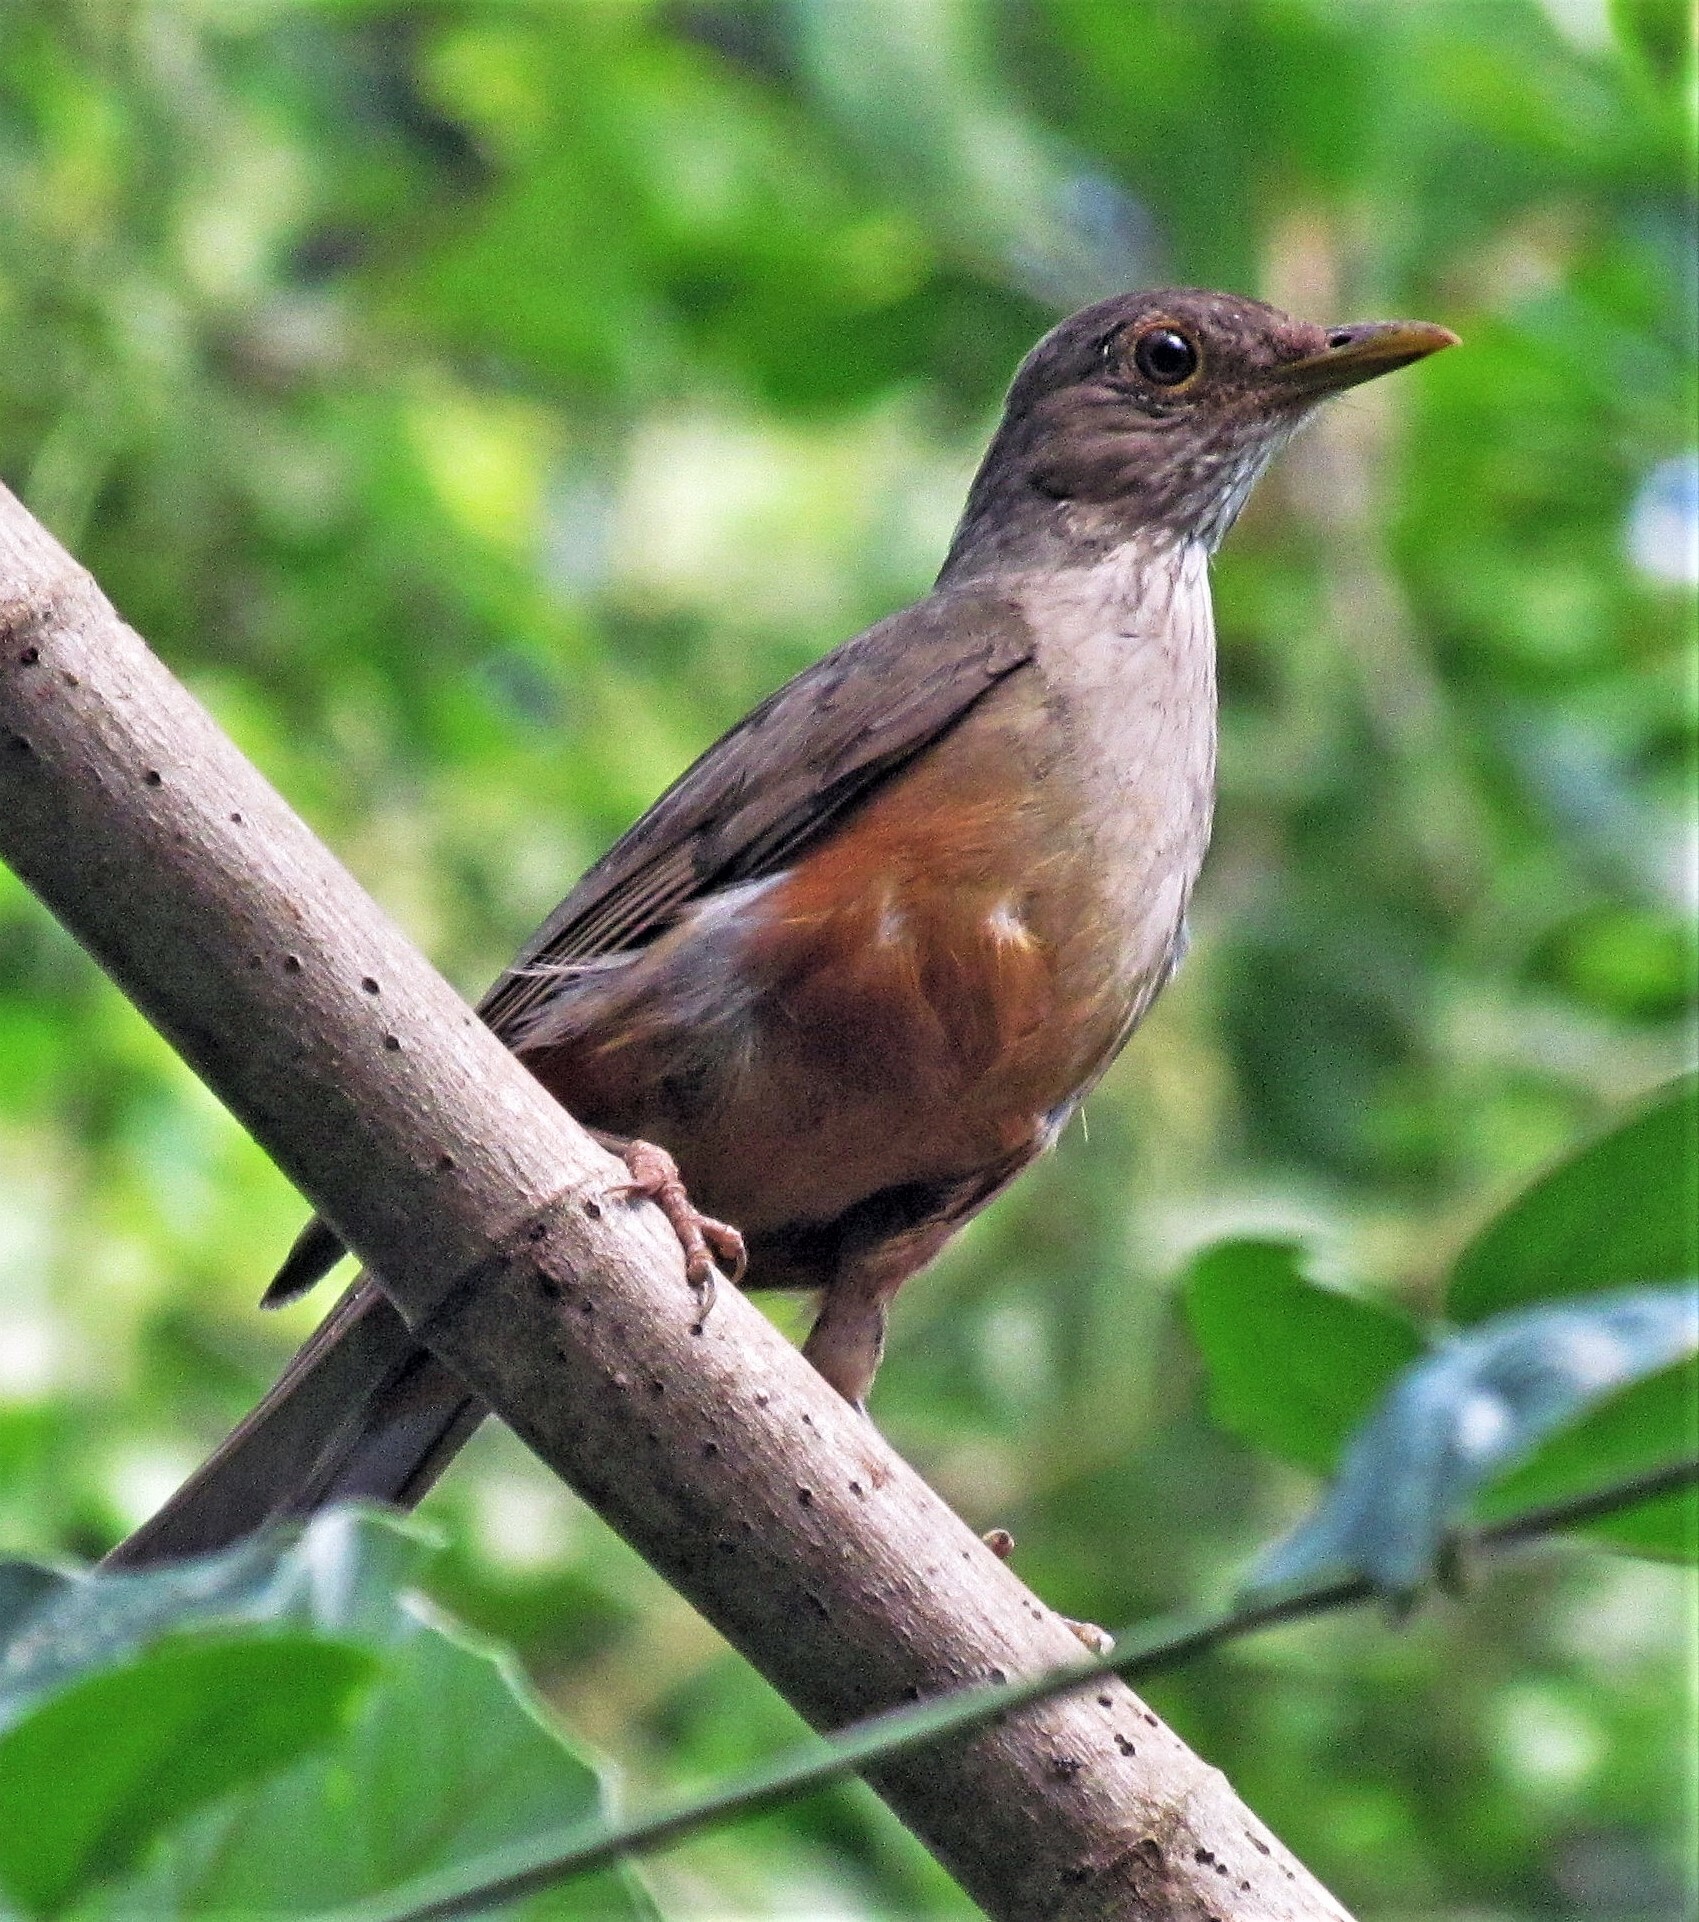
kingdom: Animalia
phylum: Chordata
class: Aves
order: Passeriformes
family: Turdidae
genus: Turdus
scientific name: Turdus rufiventris
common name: Rufous-bellied thrush
